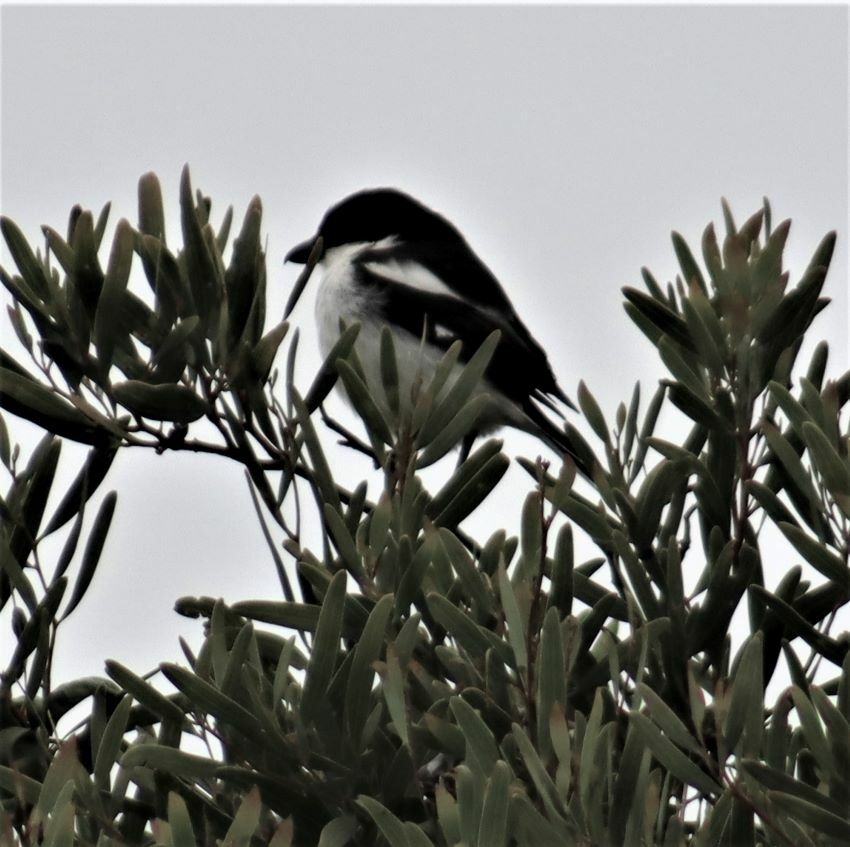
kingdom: Animalia
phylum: Chordata
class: Aves
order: Passeriformes
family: Laniidae
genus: Lanius
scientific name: Lanius collaris
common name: Southern fiscal
